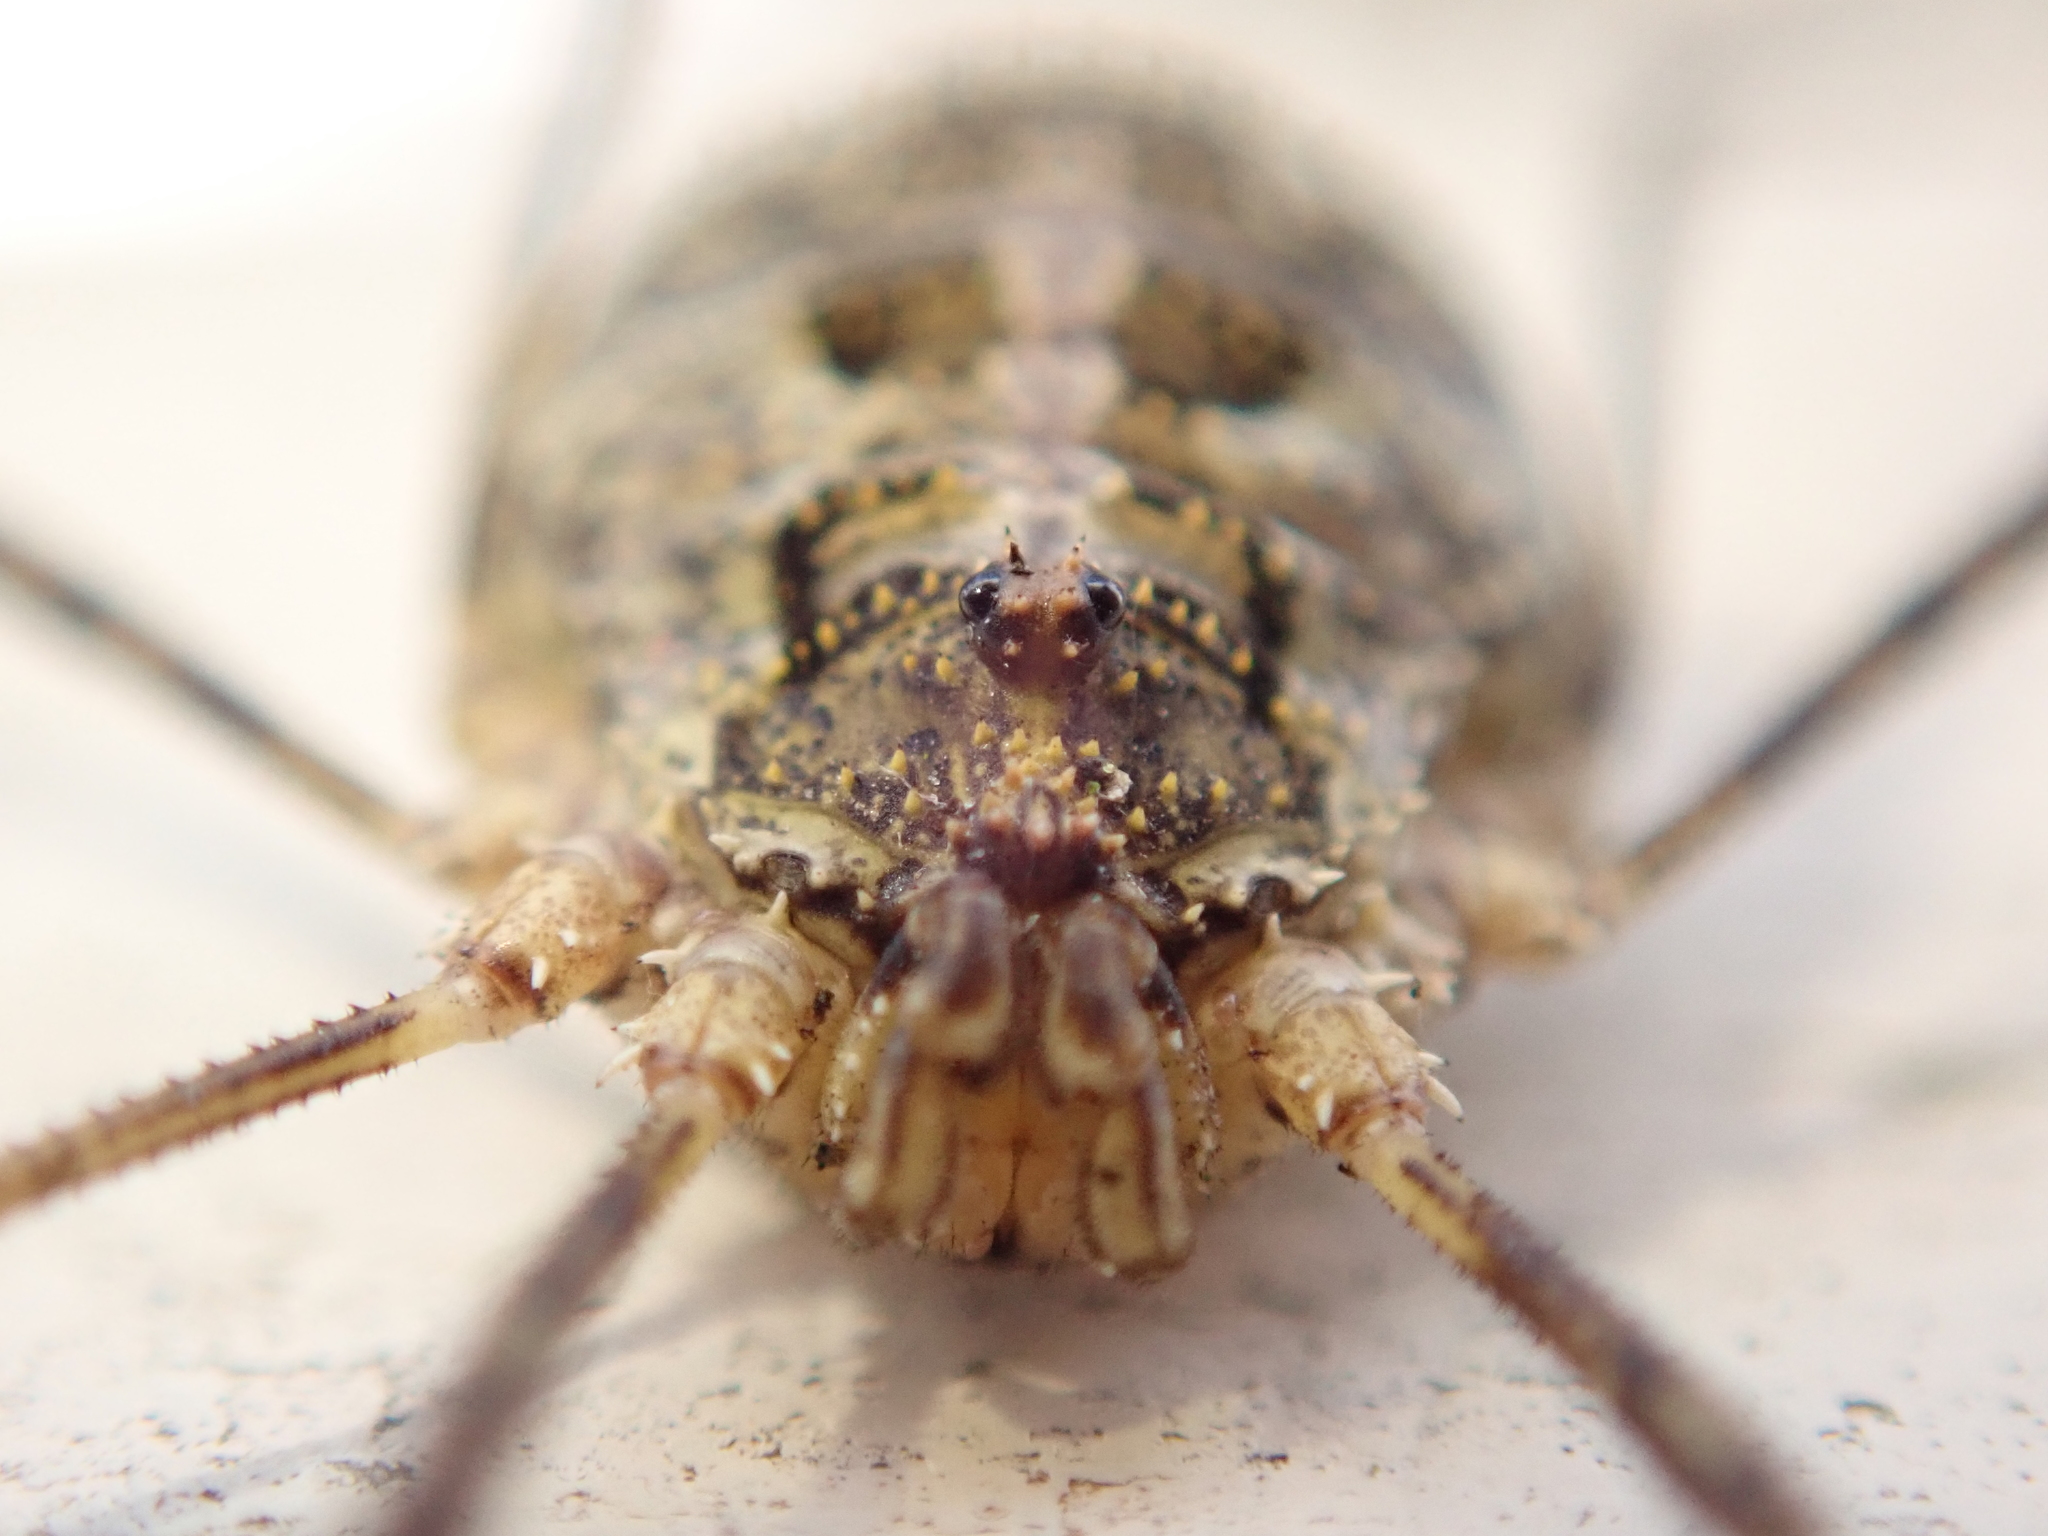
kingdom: Animalia
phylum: Arthropoda
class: Arachnida
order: Opiliones
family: Phalangiidae
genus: Lacinius
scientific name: Lacinius dentiger
